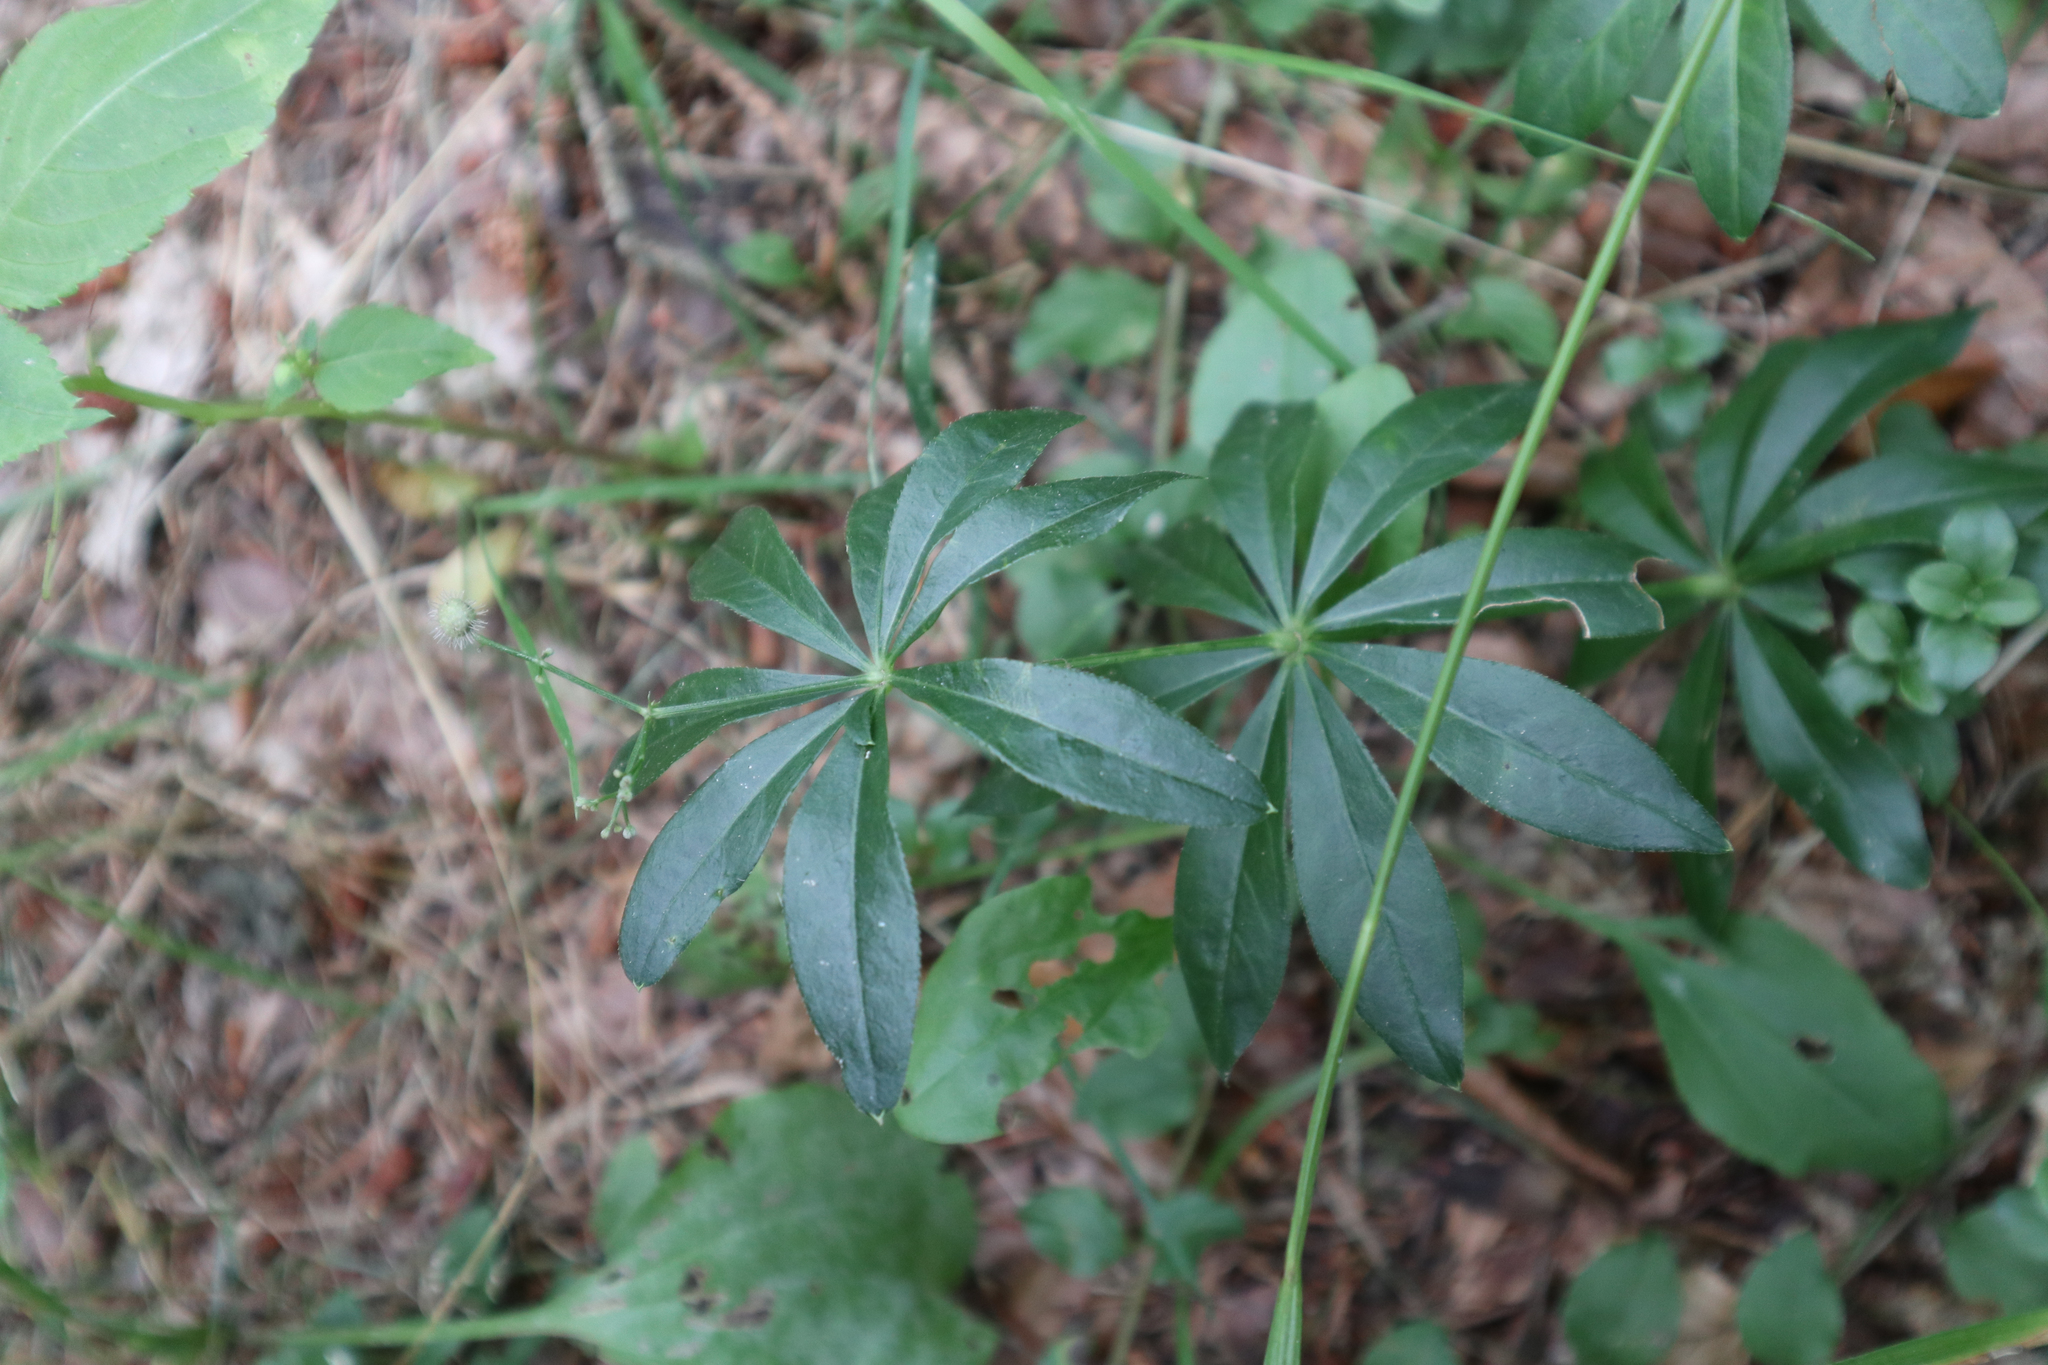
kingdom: Plantae
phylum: Tracheophyta
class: Magnoliopsida
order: Gentianales
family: Rubiaceae
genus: Galium
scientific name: Galium odoratum
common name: Sweet woodruff
